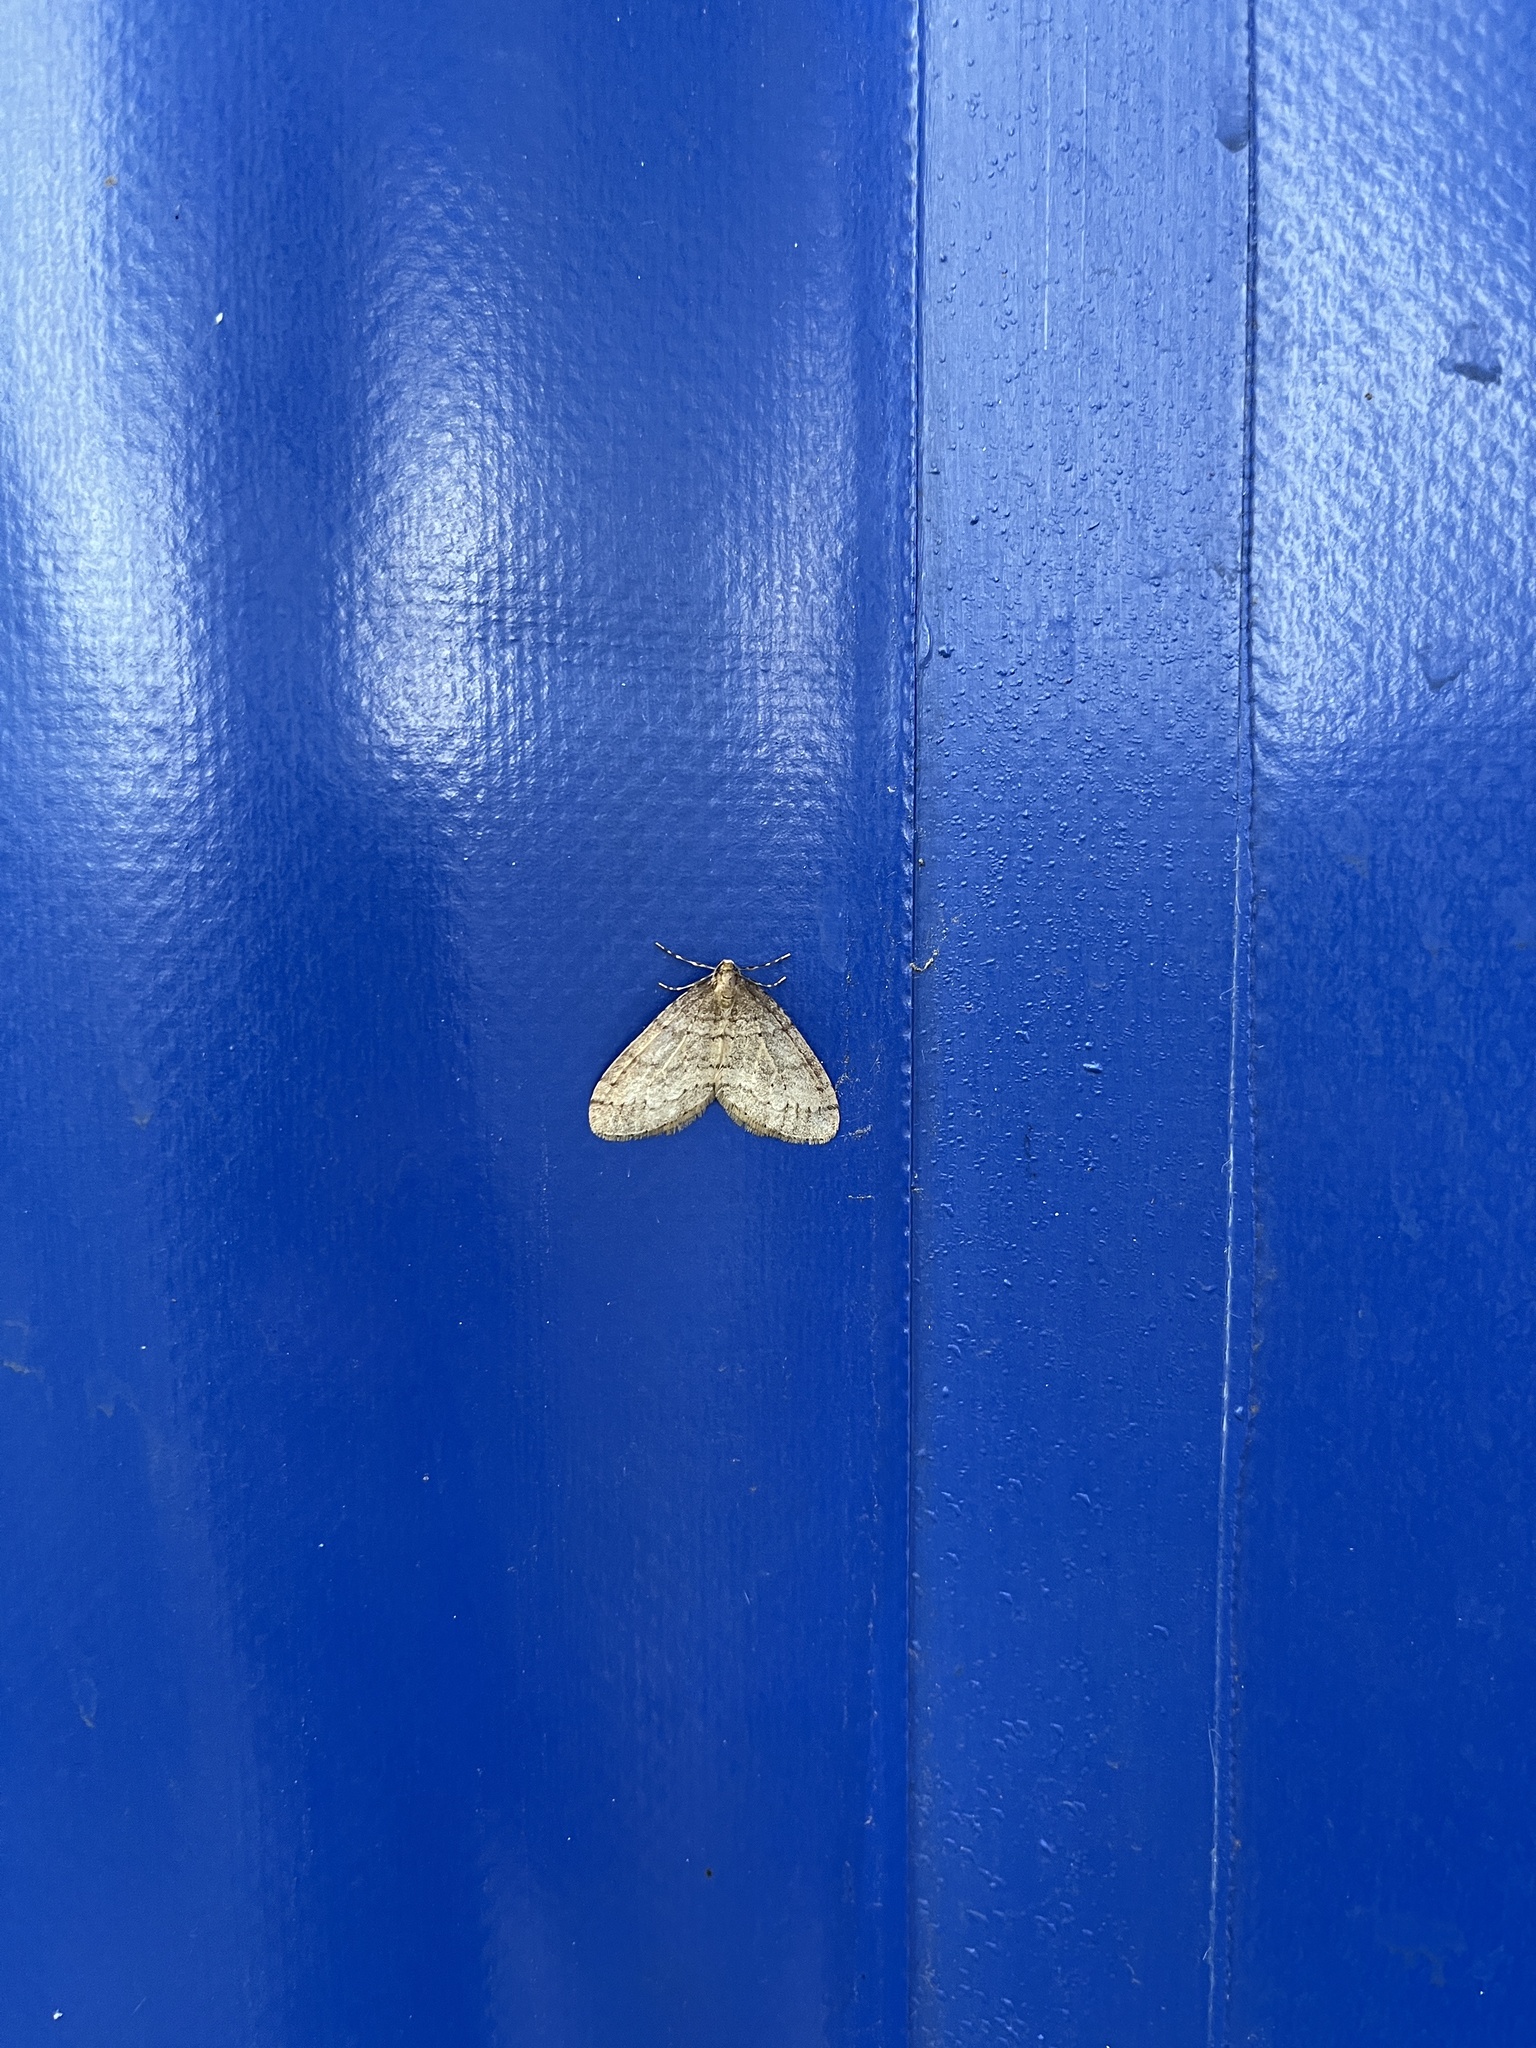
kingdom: Animalia
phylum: Arthropoda
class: Insecta
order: Lepidoptera
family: Geometridae
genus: Operophtera
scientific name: Operophtera brumata
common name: Winter moth
